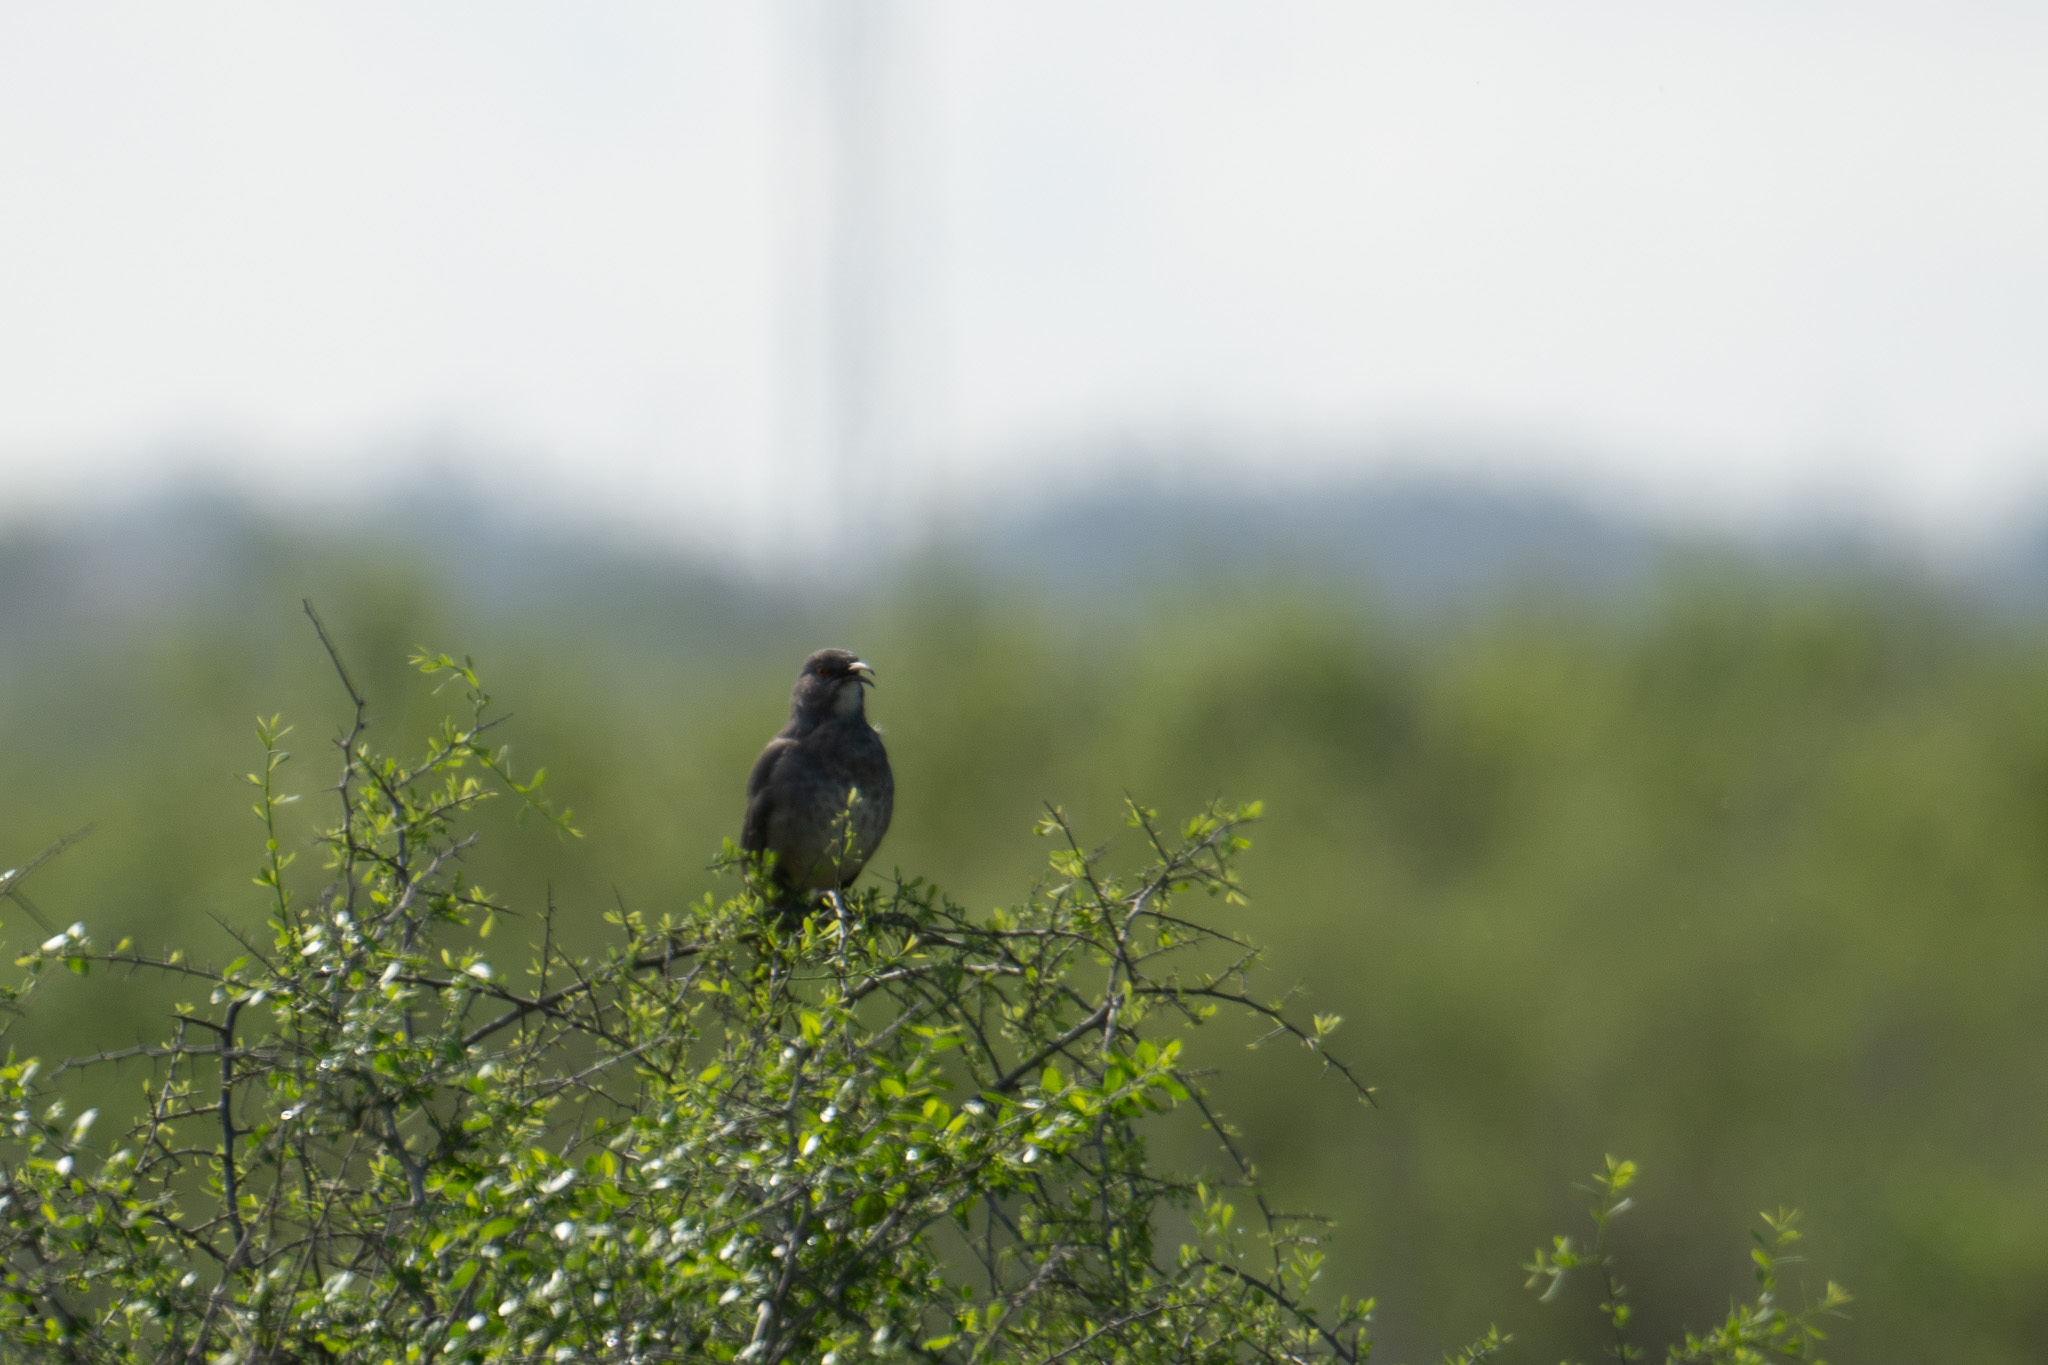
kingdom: Animalia
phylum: Chordata
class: Aves
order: Passeriformes
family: Mimidae
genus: Toxostoma
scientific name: Toxostoma curvirostre
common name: Curve-billed thrasher
